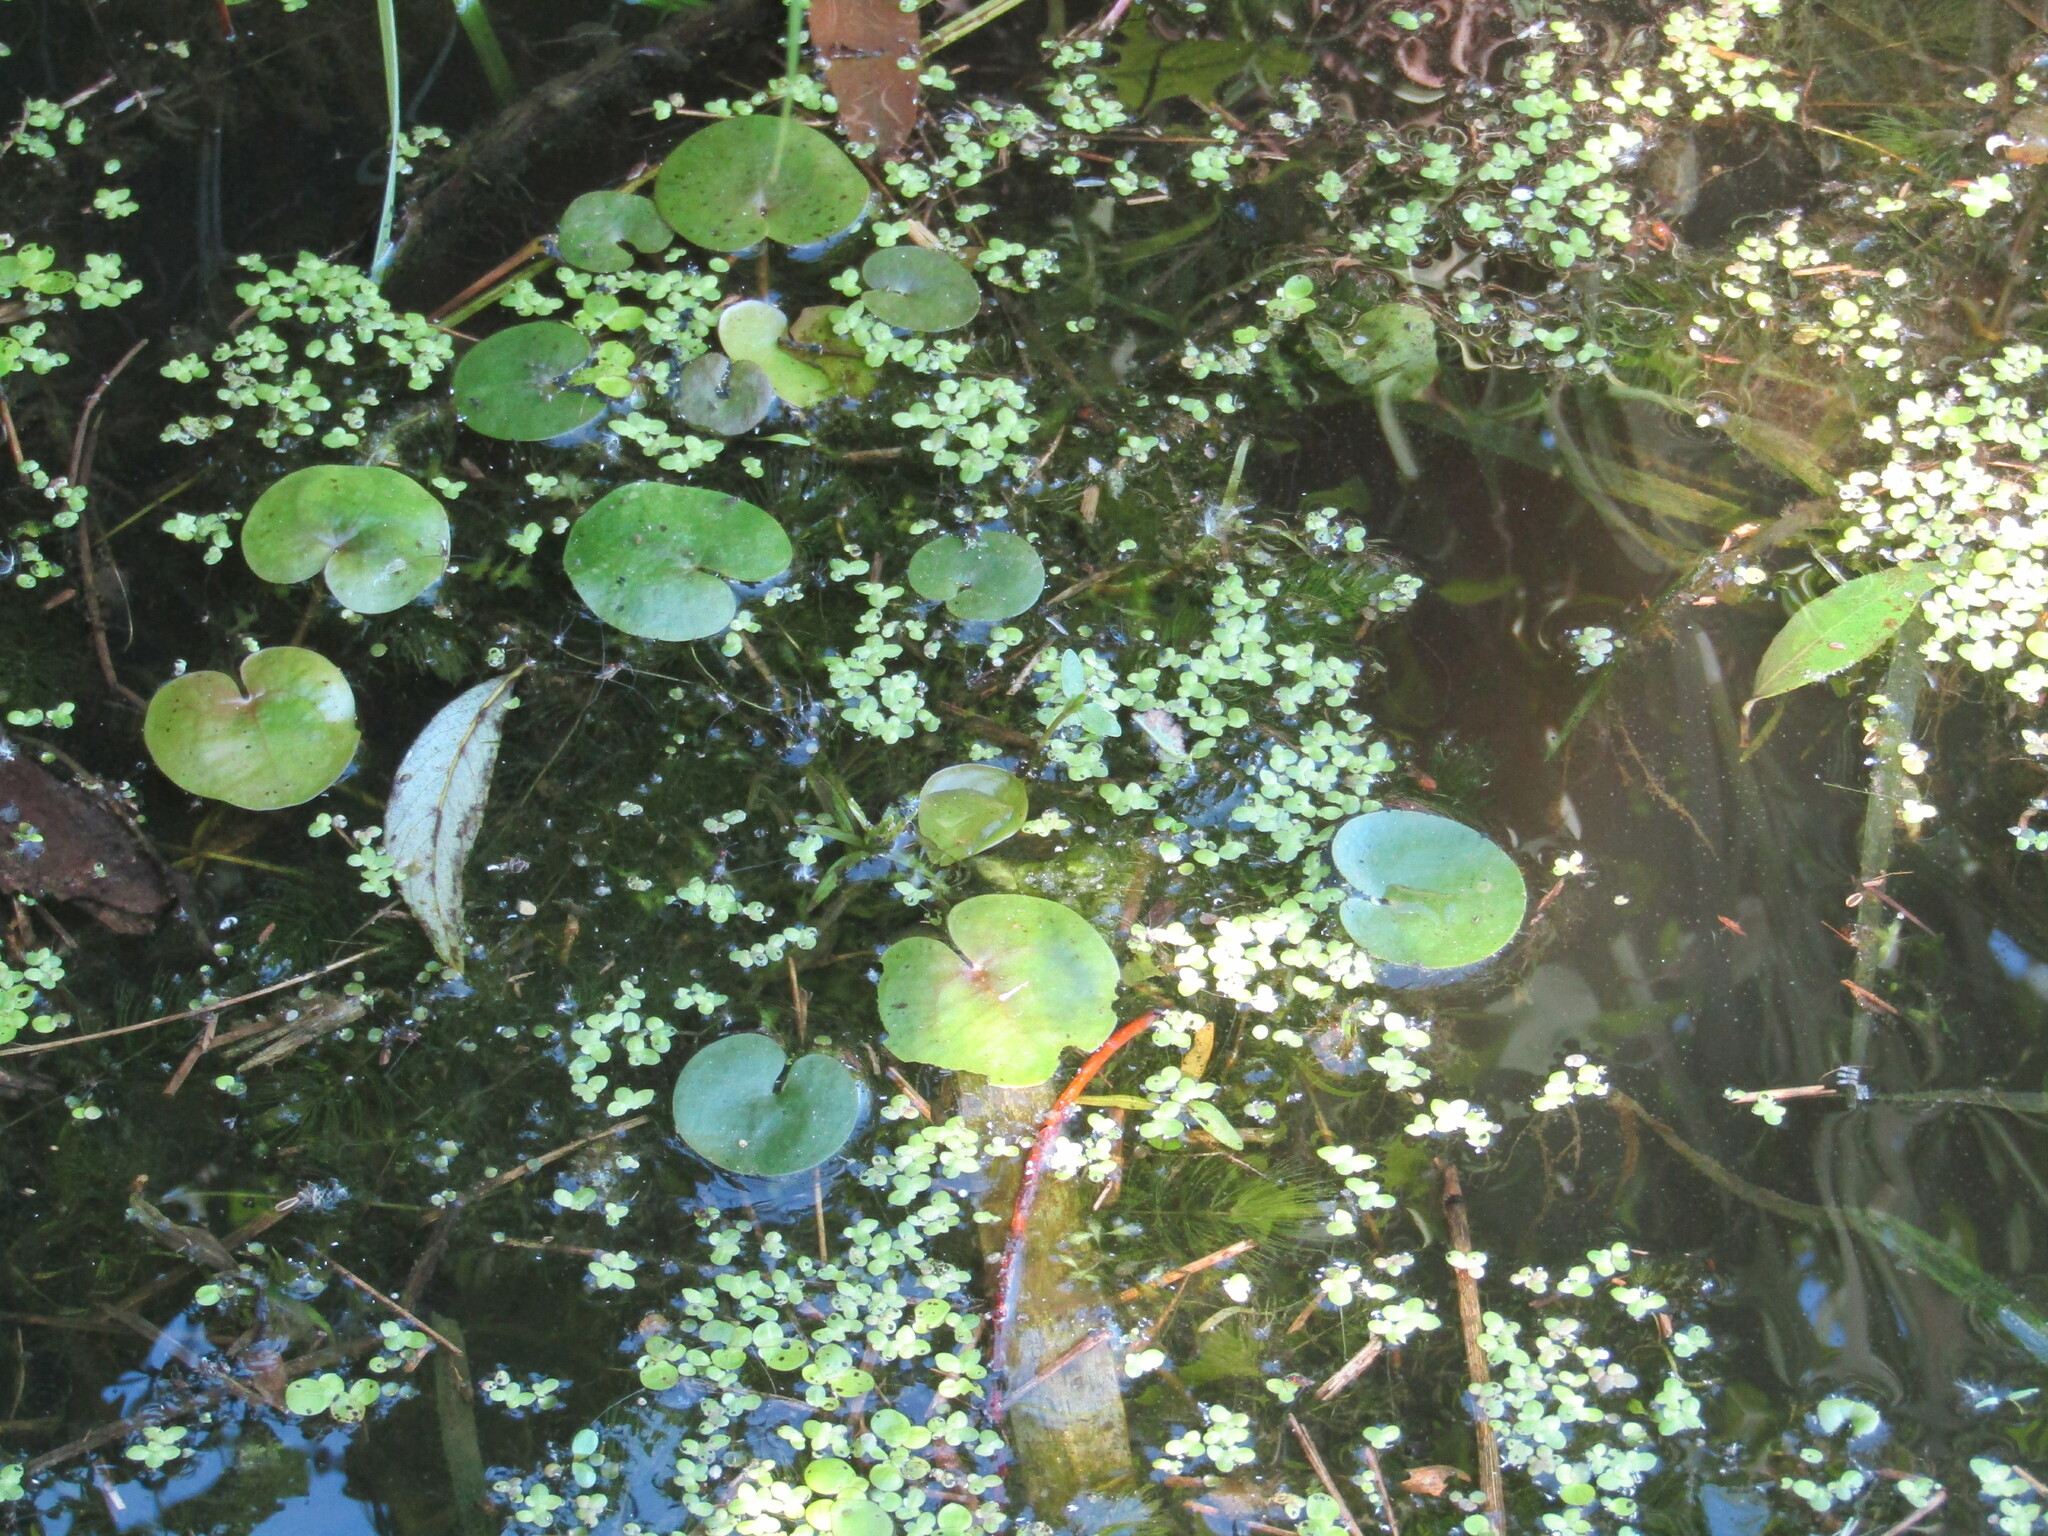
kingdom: Plantae
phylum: Tracheophyta
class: Liliopsida
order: Alismatales
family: Hydrocharitaceae
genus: Hydrocharis
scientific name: Hydrocharis morsus-ranae
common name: Frogbit
